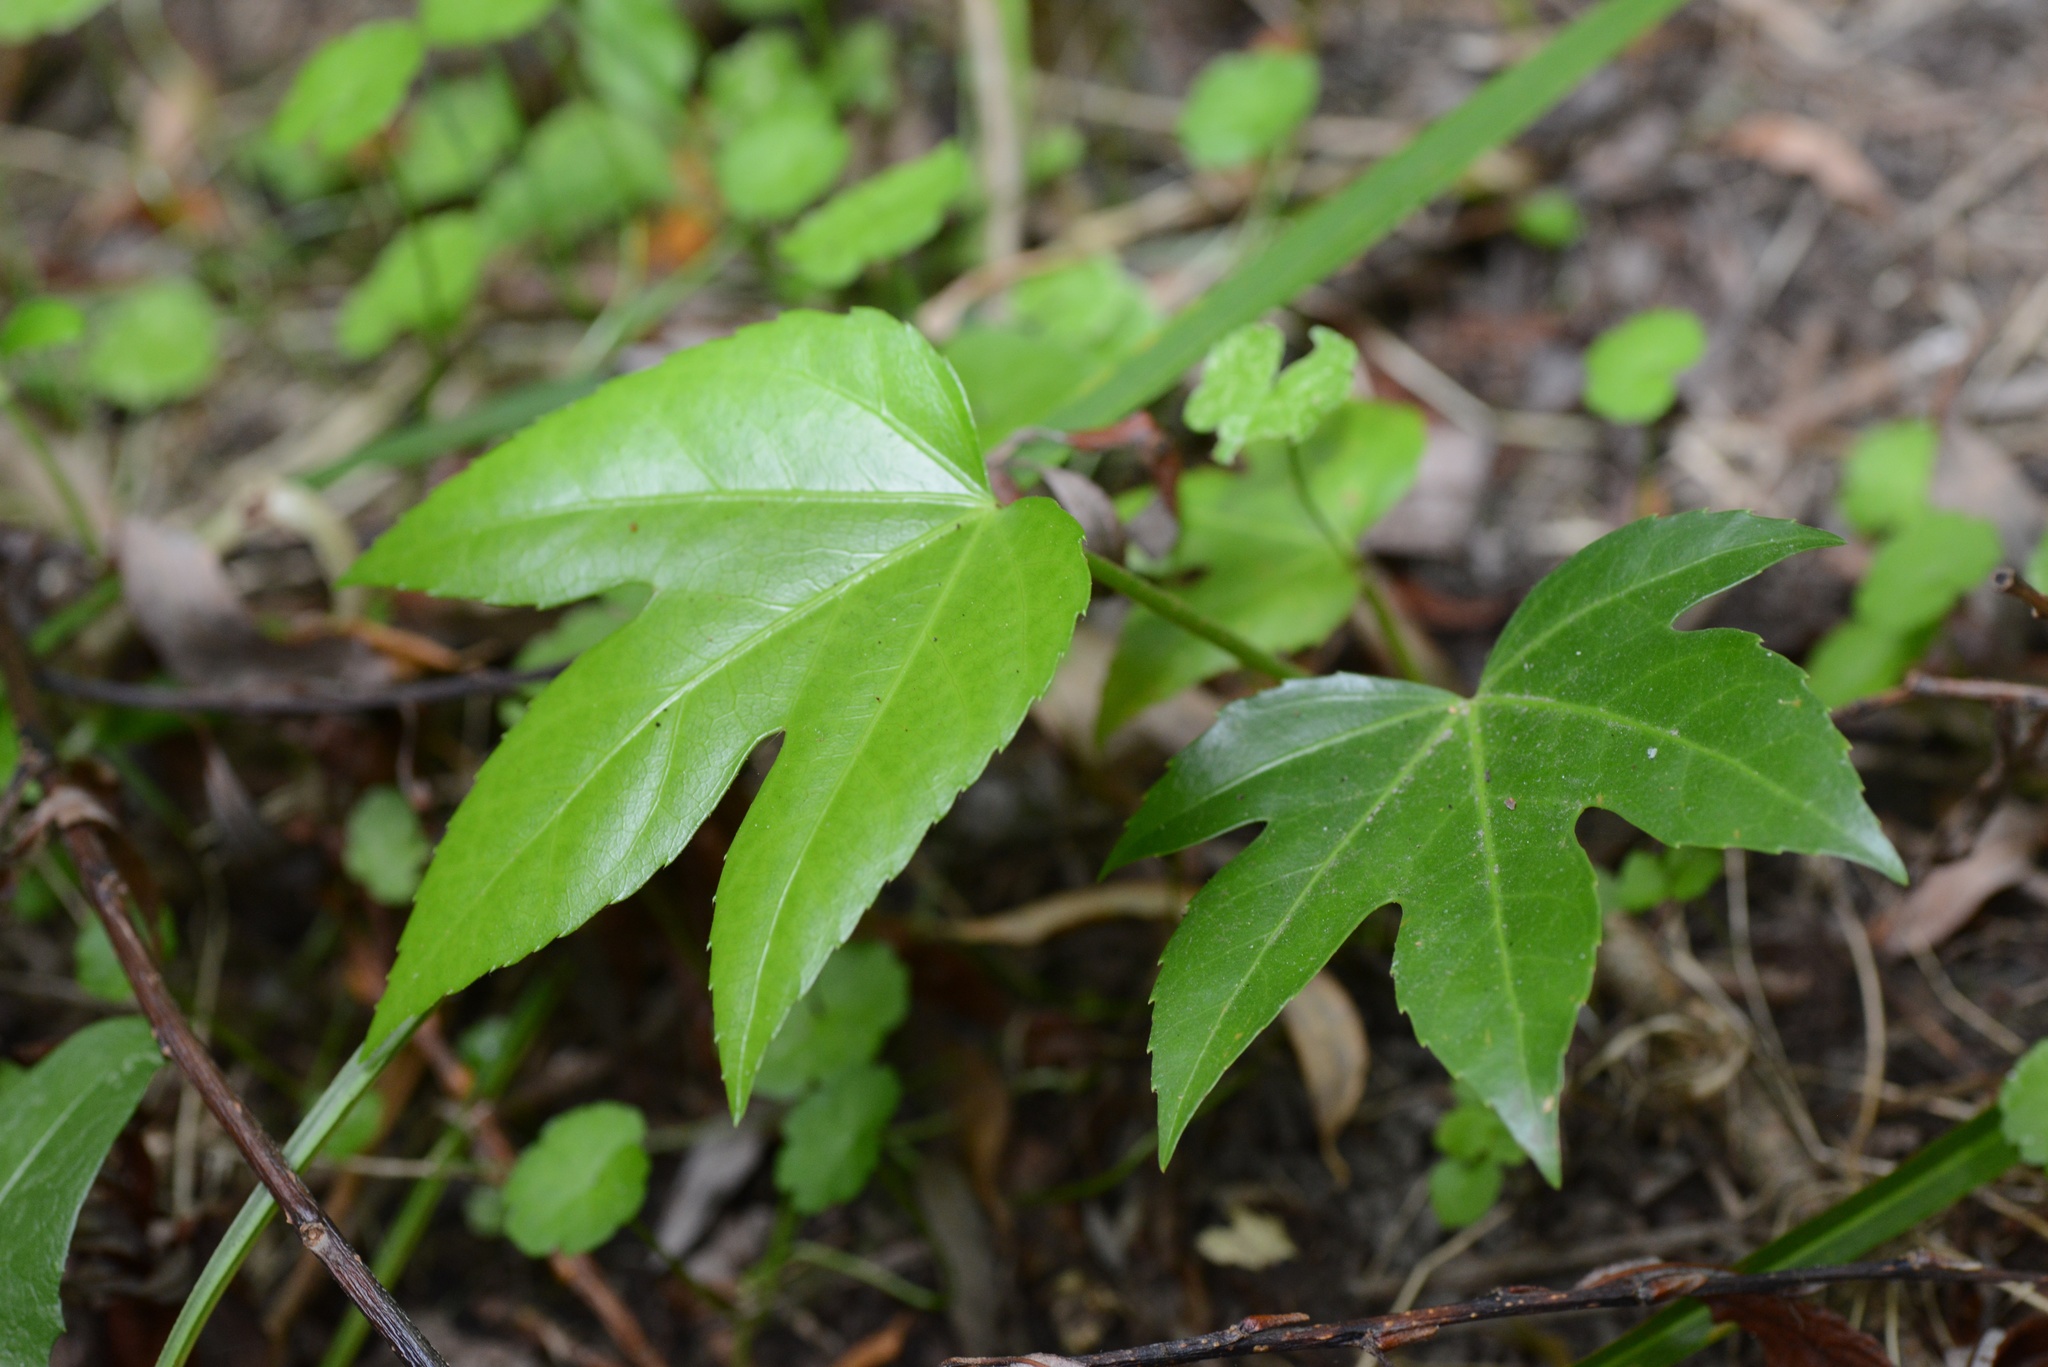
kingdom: Plantae
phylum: Tracheophyta
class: Magnoliopsida
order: Apiales
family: Araliaceae
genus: Fatsia
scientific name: Fatsia japonica
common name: Fatsia
